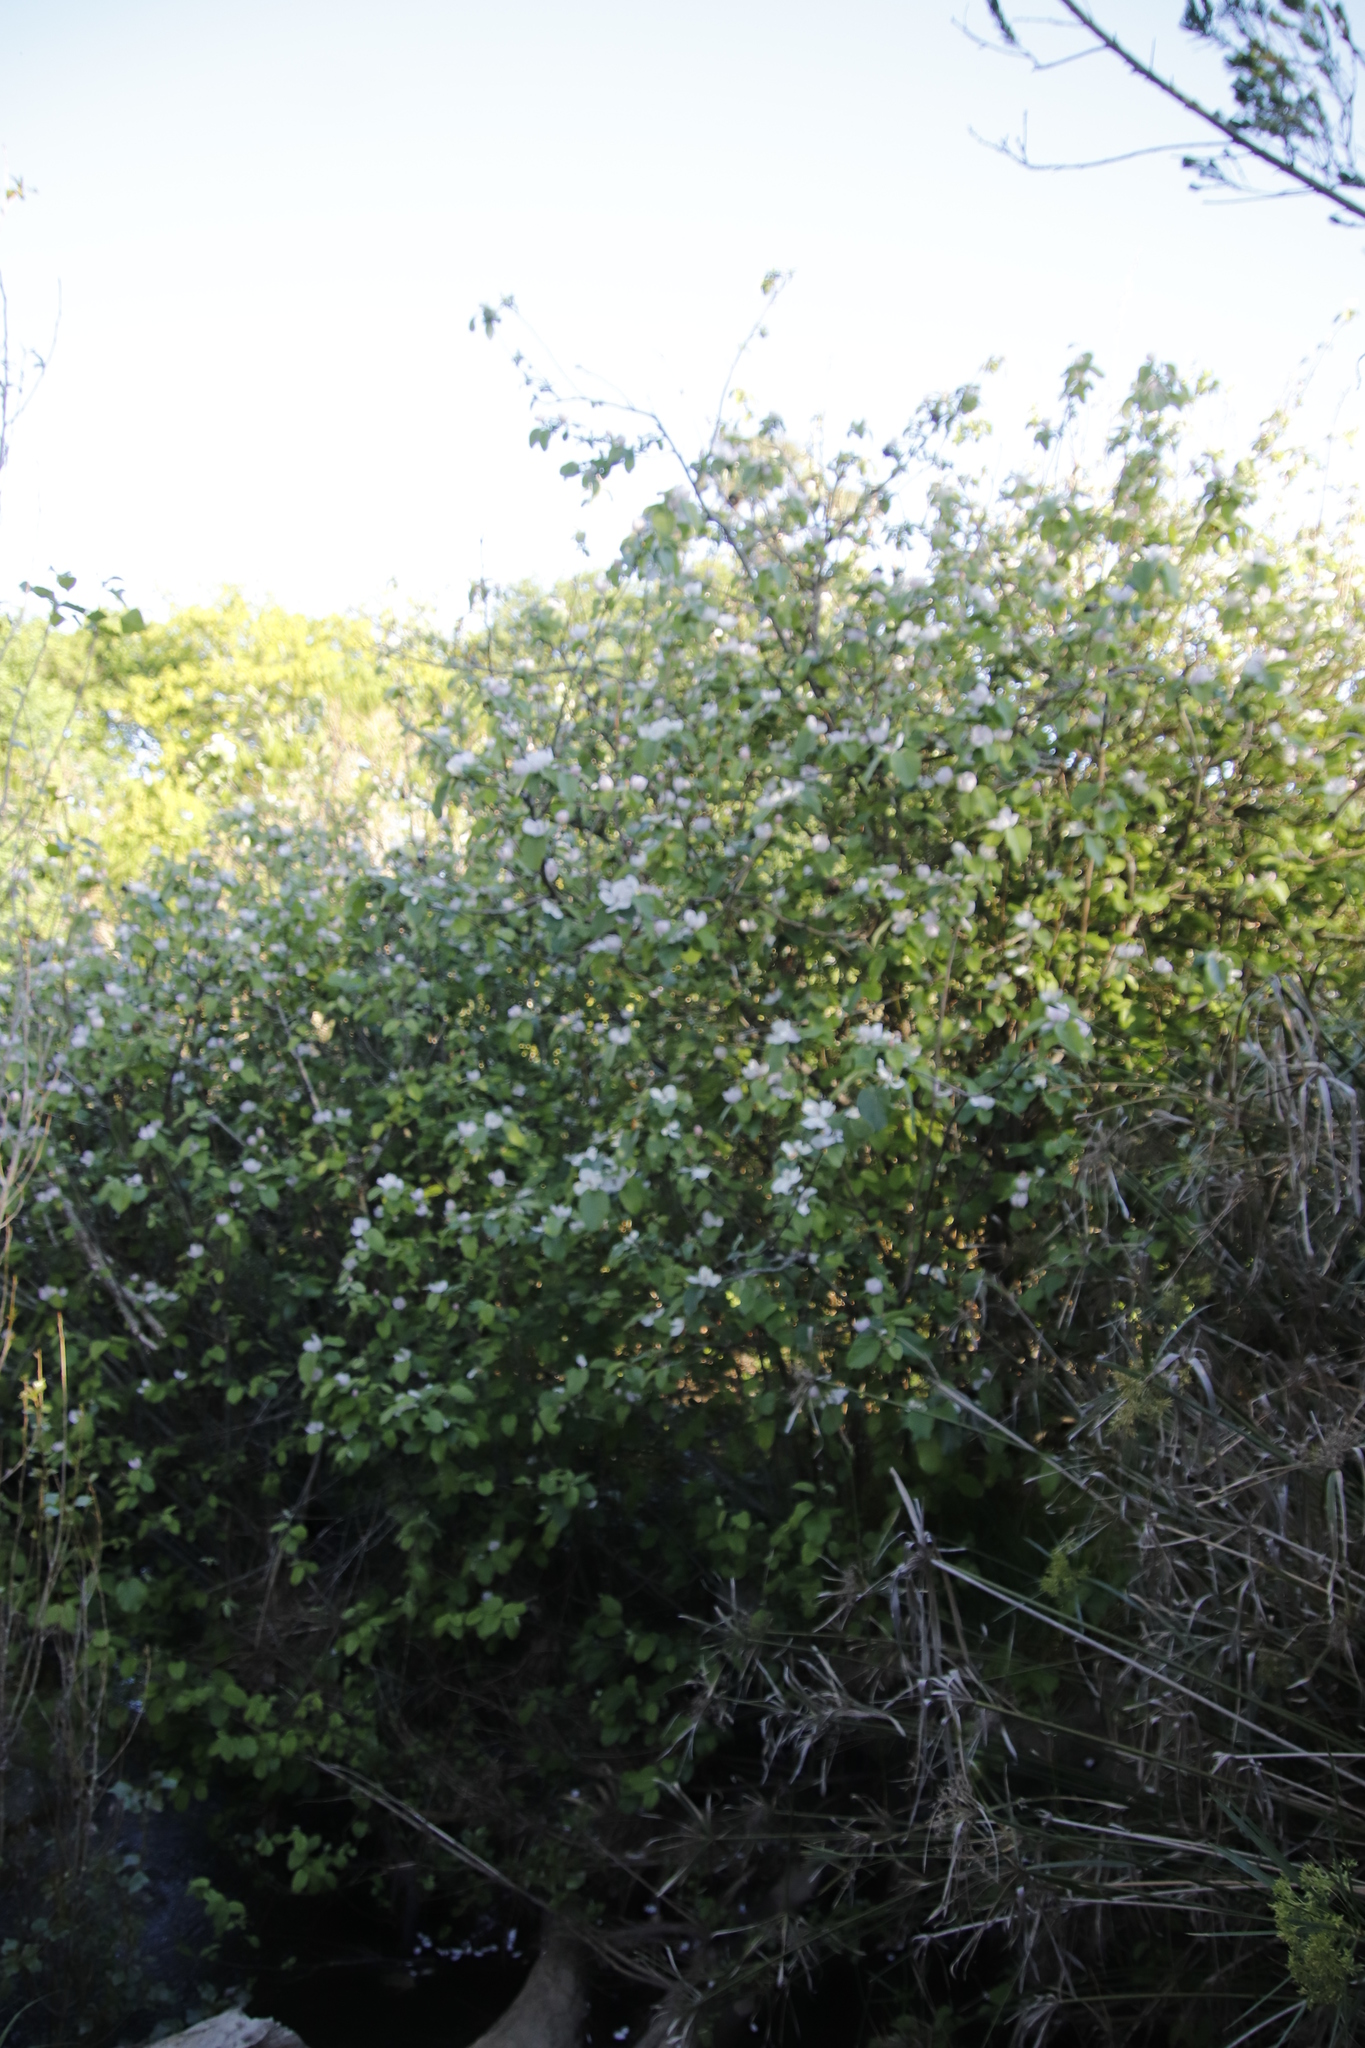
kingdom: Plantae
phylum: Tracheophyta
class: Magnoliopsida
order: Rosales
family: Rosaceae
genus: Cydonia
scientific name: Cydonia oblonga
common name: Quince
